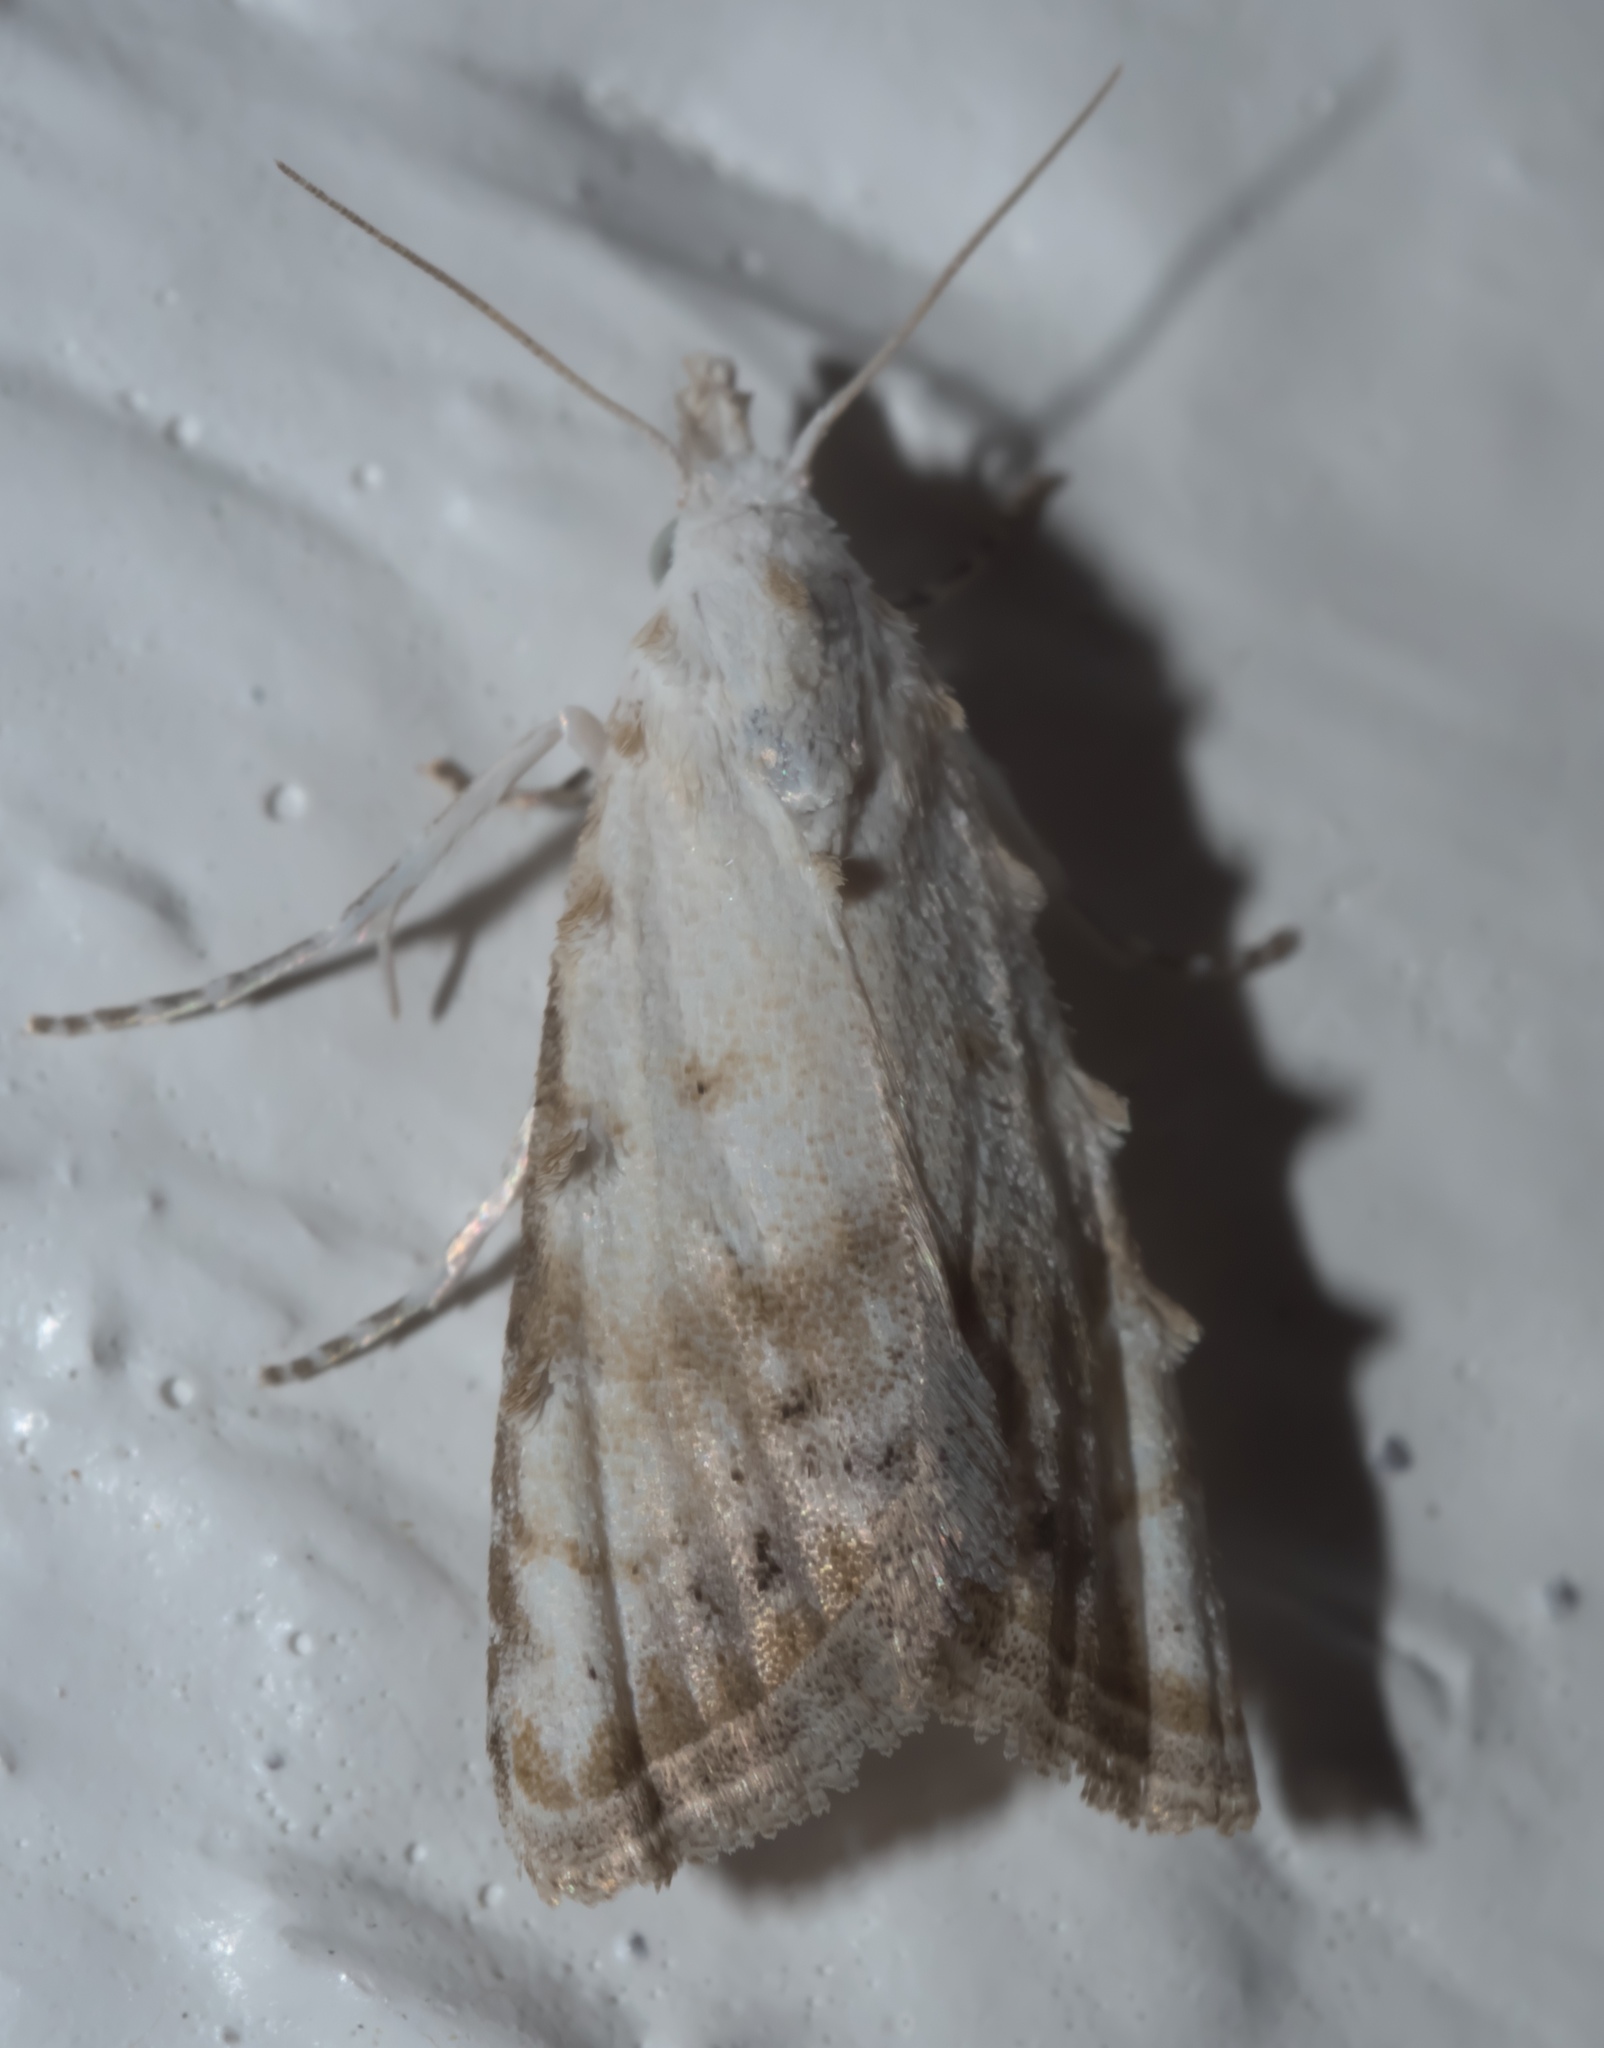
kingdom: Animalia
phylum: Arthropoda
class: Insecta
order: Lepidoptera
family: Nolidae
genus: Nola
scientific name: Nola cereella
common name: Sorghum webworm moth
